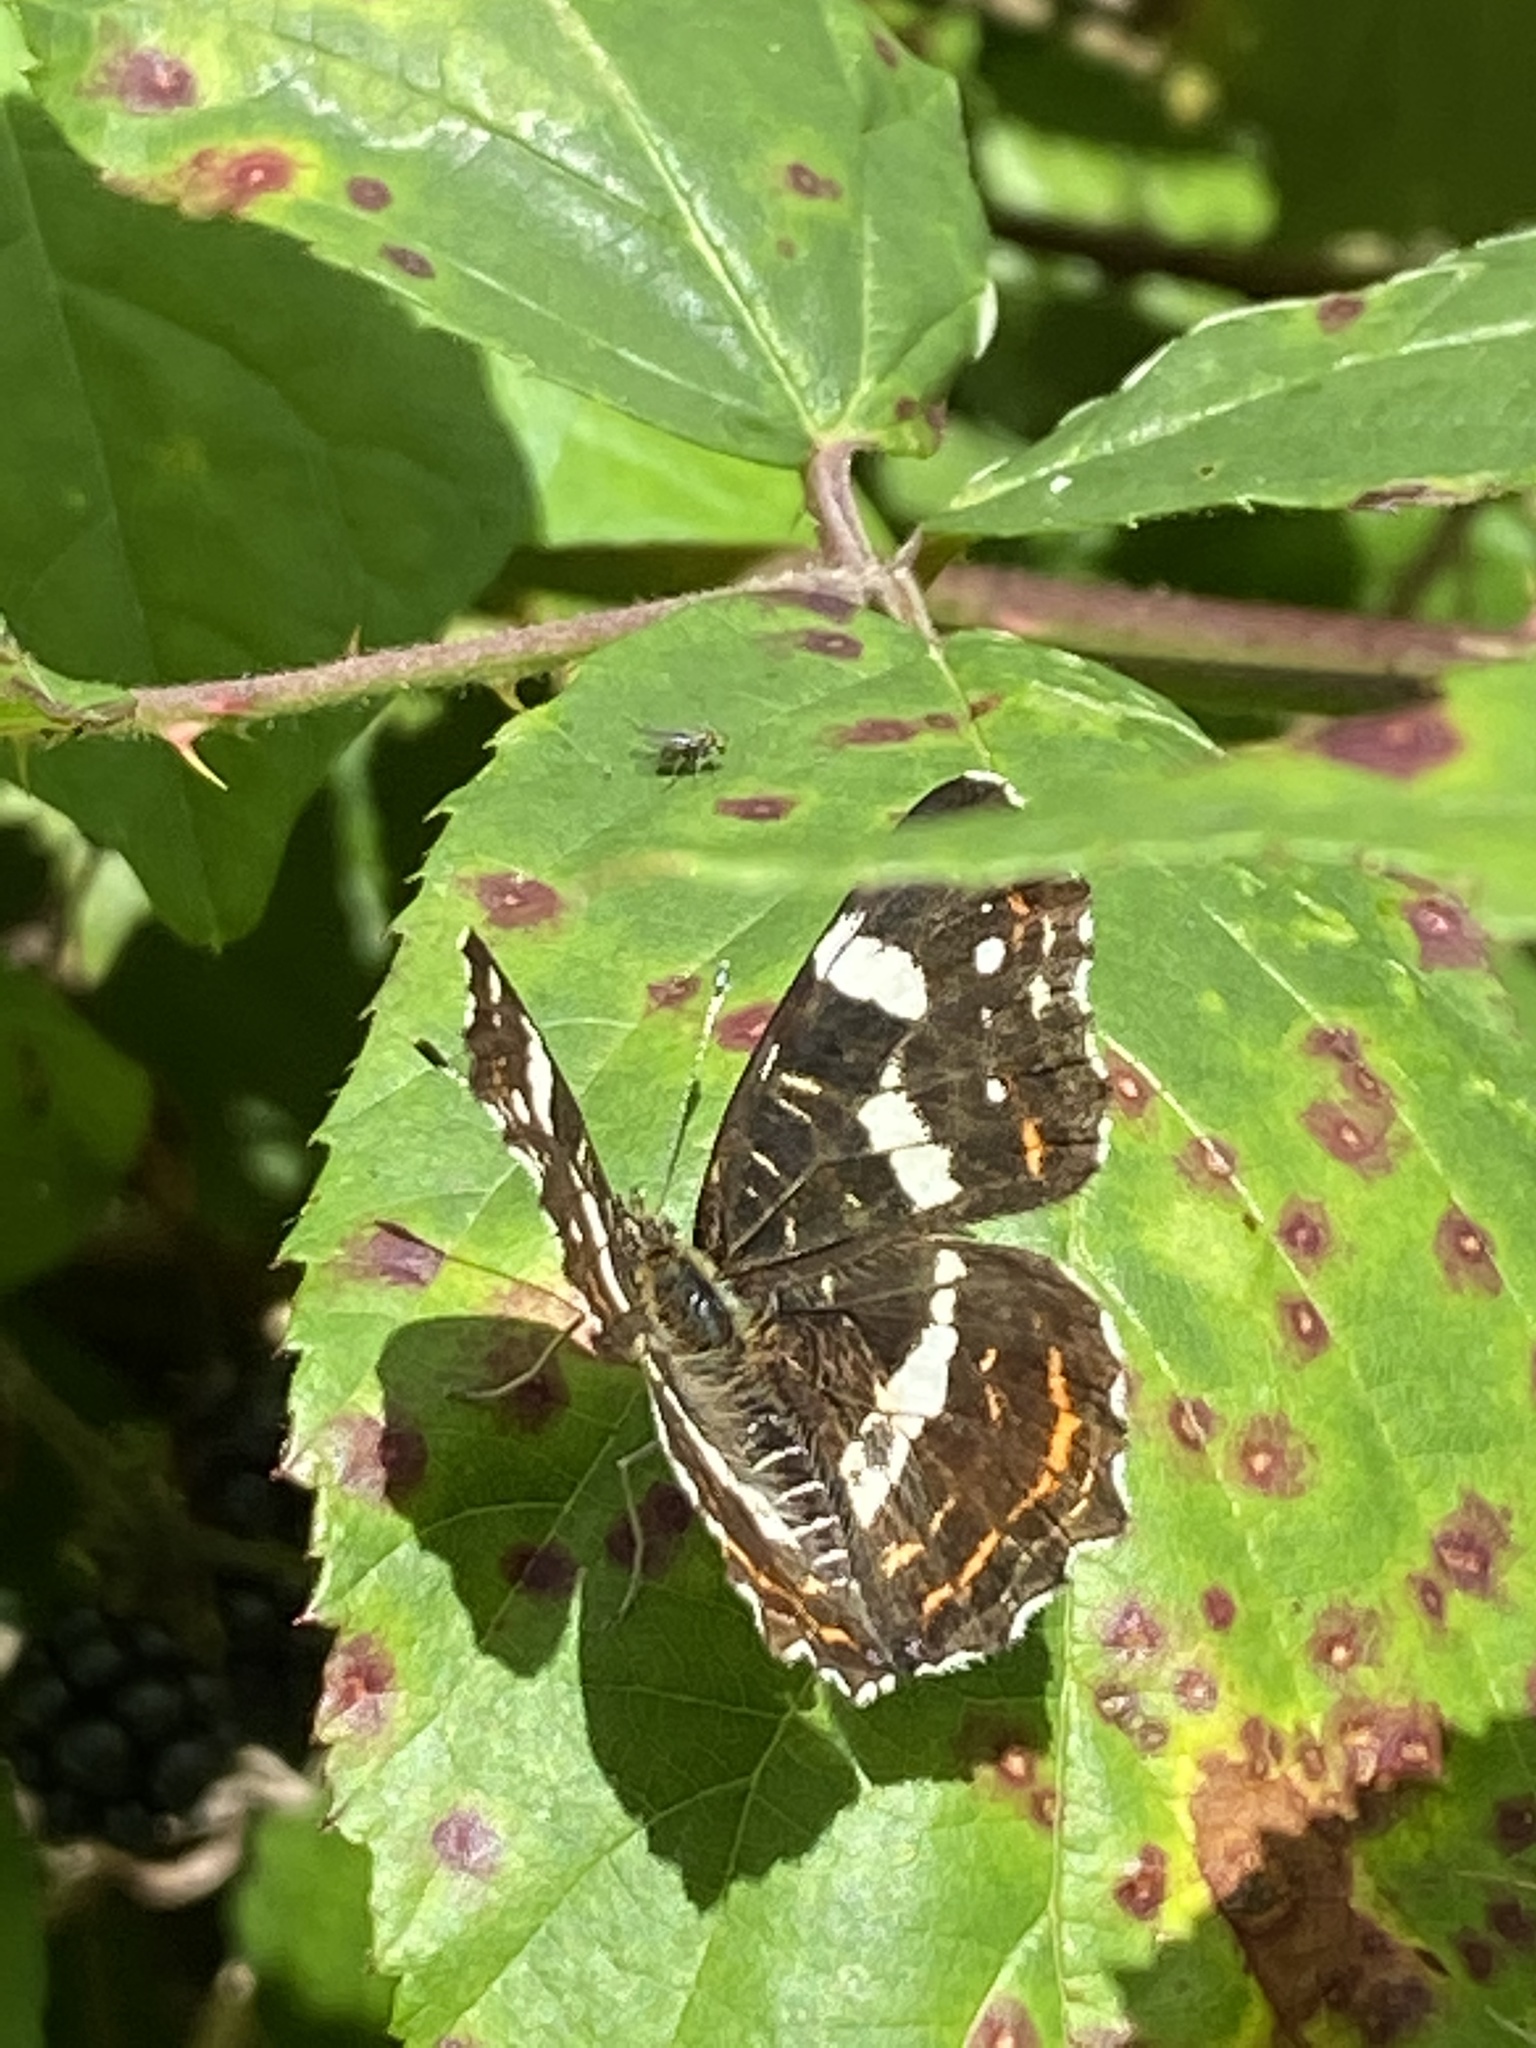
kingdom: Animalia
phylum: Arthropoda
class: Insecta
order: Lepidoptera
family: Nymphalidae
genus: Araschnia
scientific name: Araschnia levana
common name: Map butterfly
